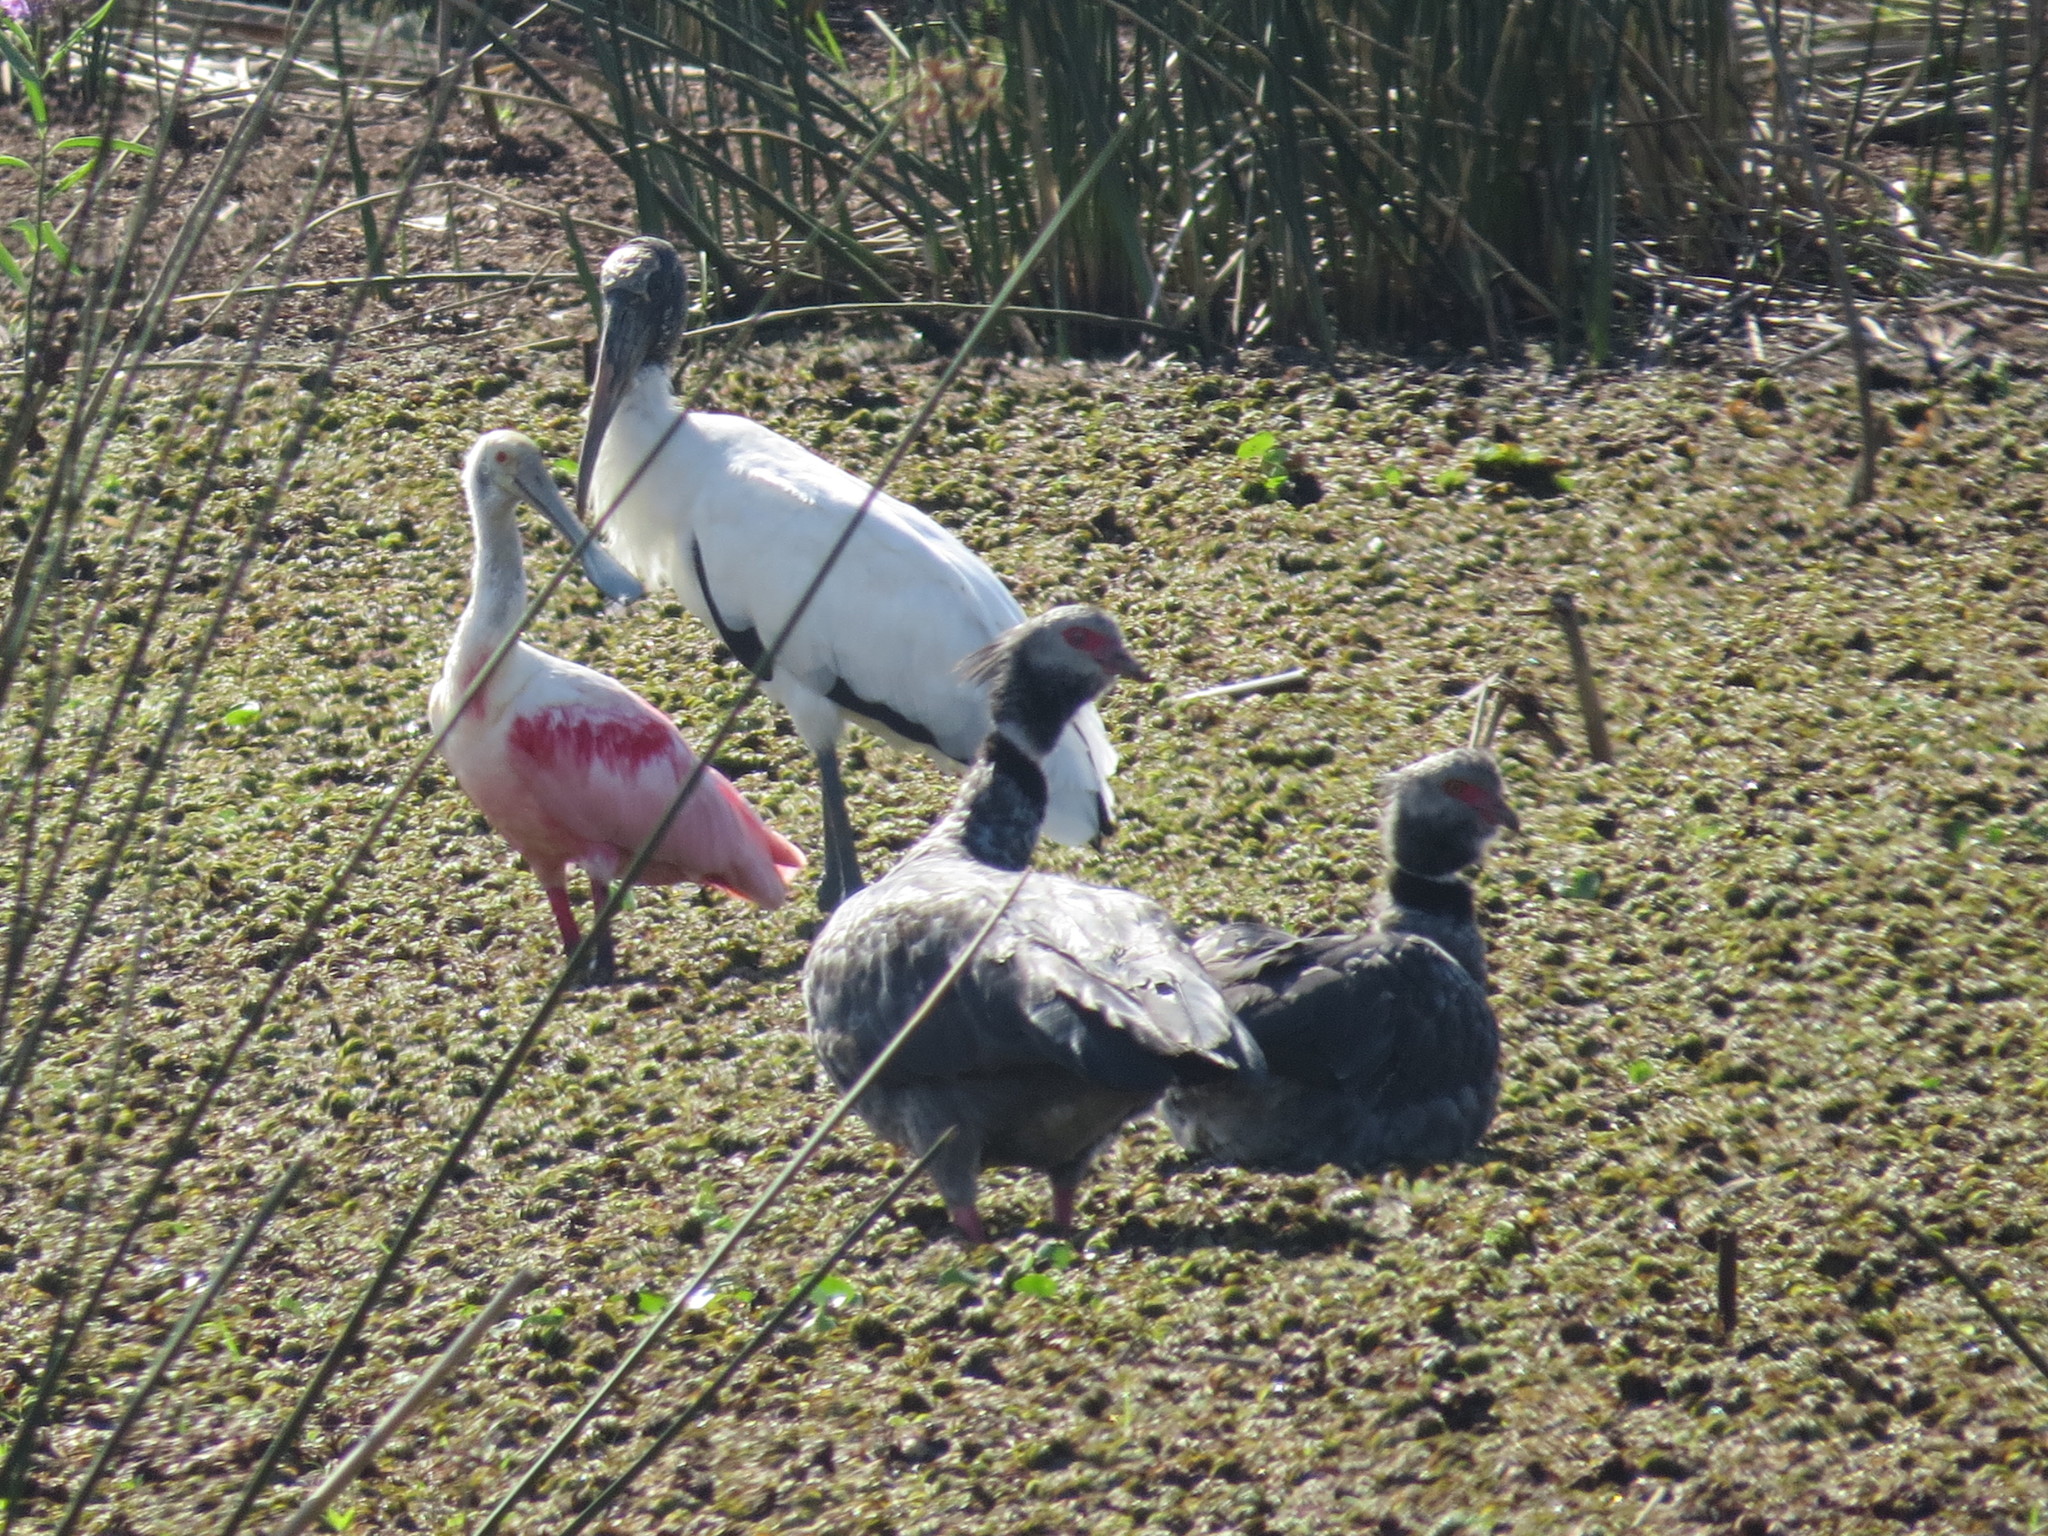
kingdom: Animalia
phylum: Chordata
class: Aves
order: Pelecaniformes
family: Threskiornithidae
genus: Platalea
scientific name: Platalea ajaja
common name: Roseate spoonbill
